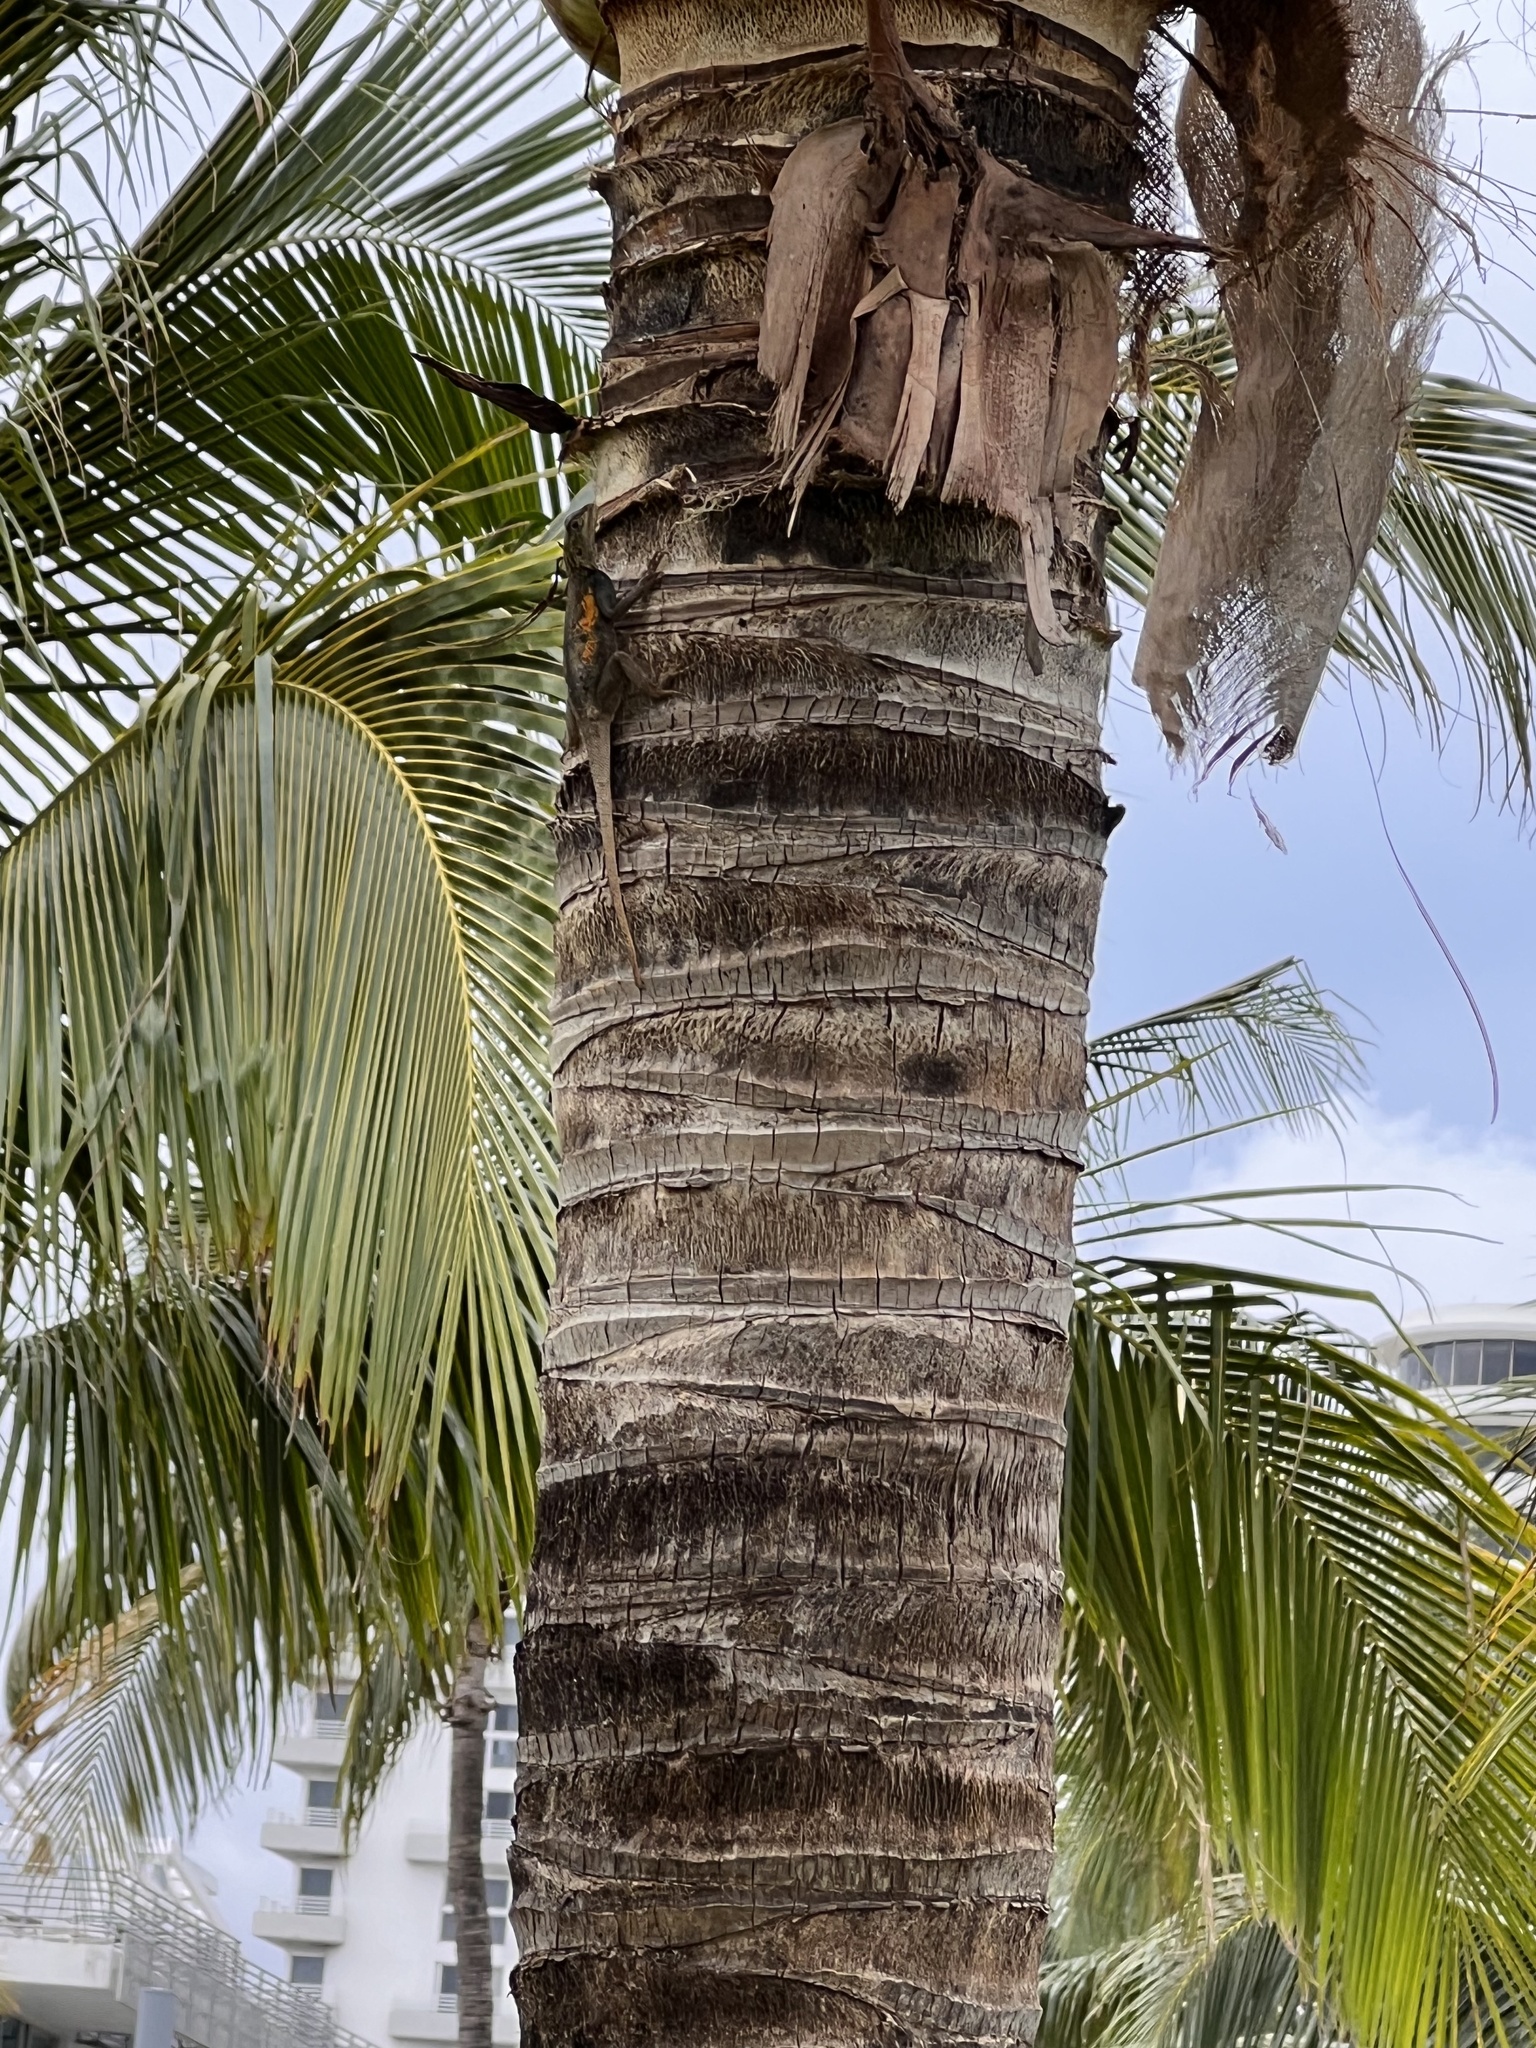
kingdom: Animalia
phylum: Chordata
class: Squamata
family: Agamidae
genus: Agama
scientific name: Agama picticauda
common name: Red-headed agama
